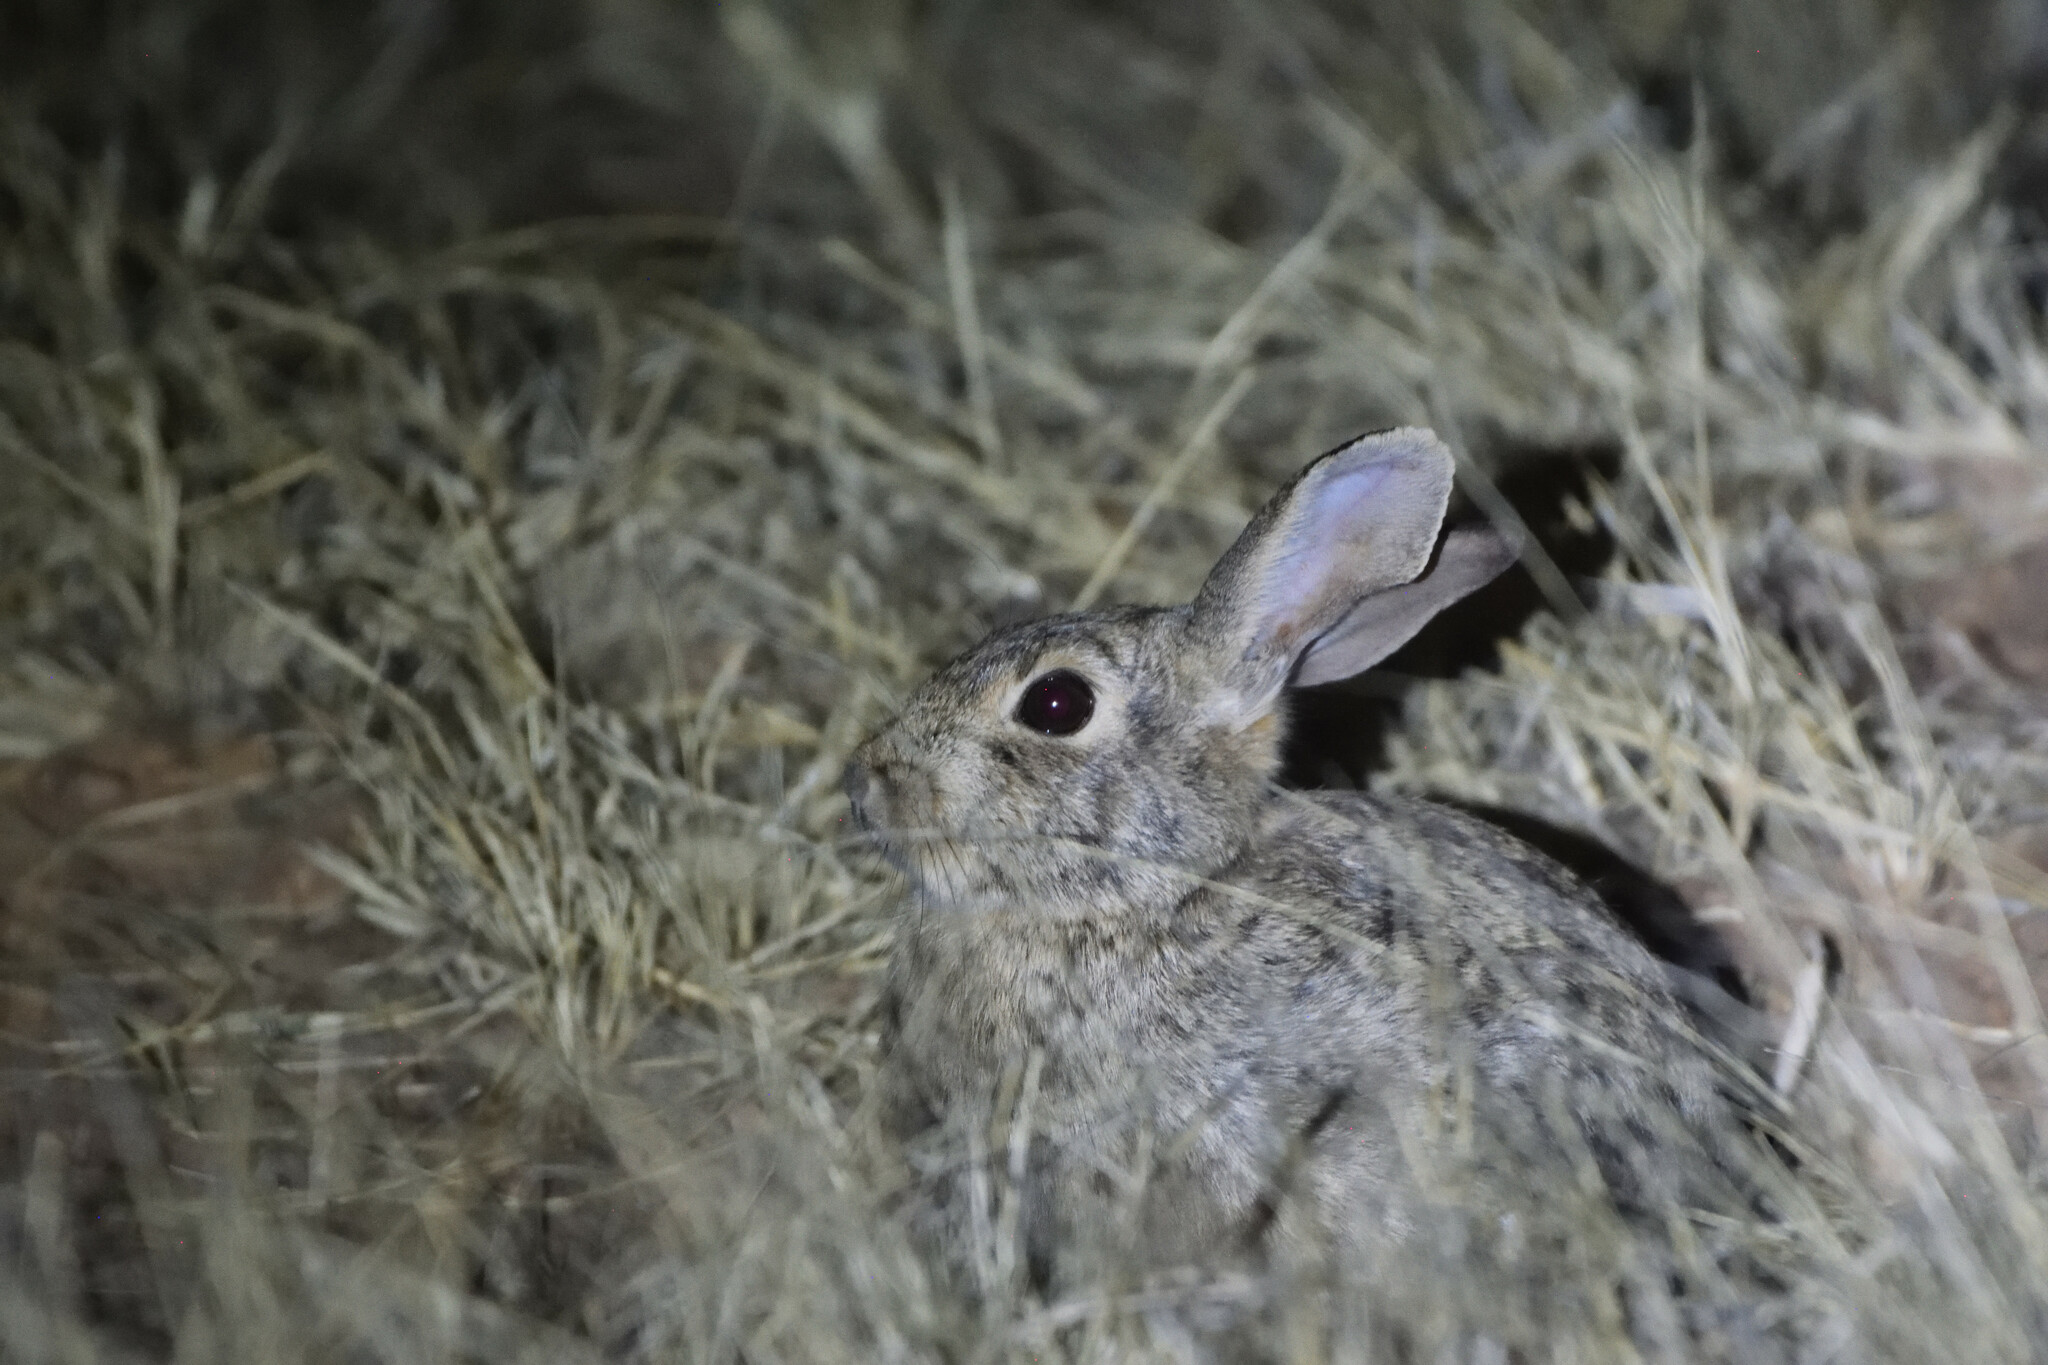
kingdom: Animalia
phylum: Chordata
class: Mammalia
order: Lagomorpha
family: Leporidae
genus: Sylvilagus
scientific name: Sylvilagus audubonii
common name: Desert cottontail
